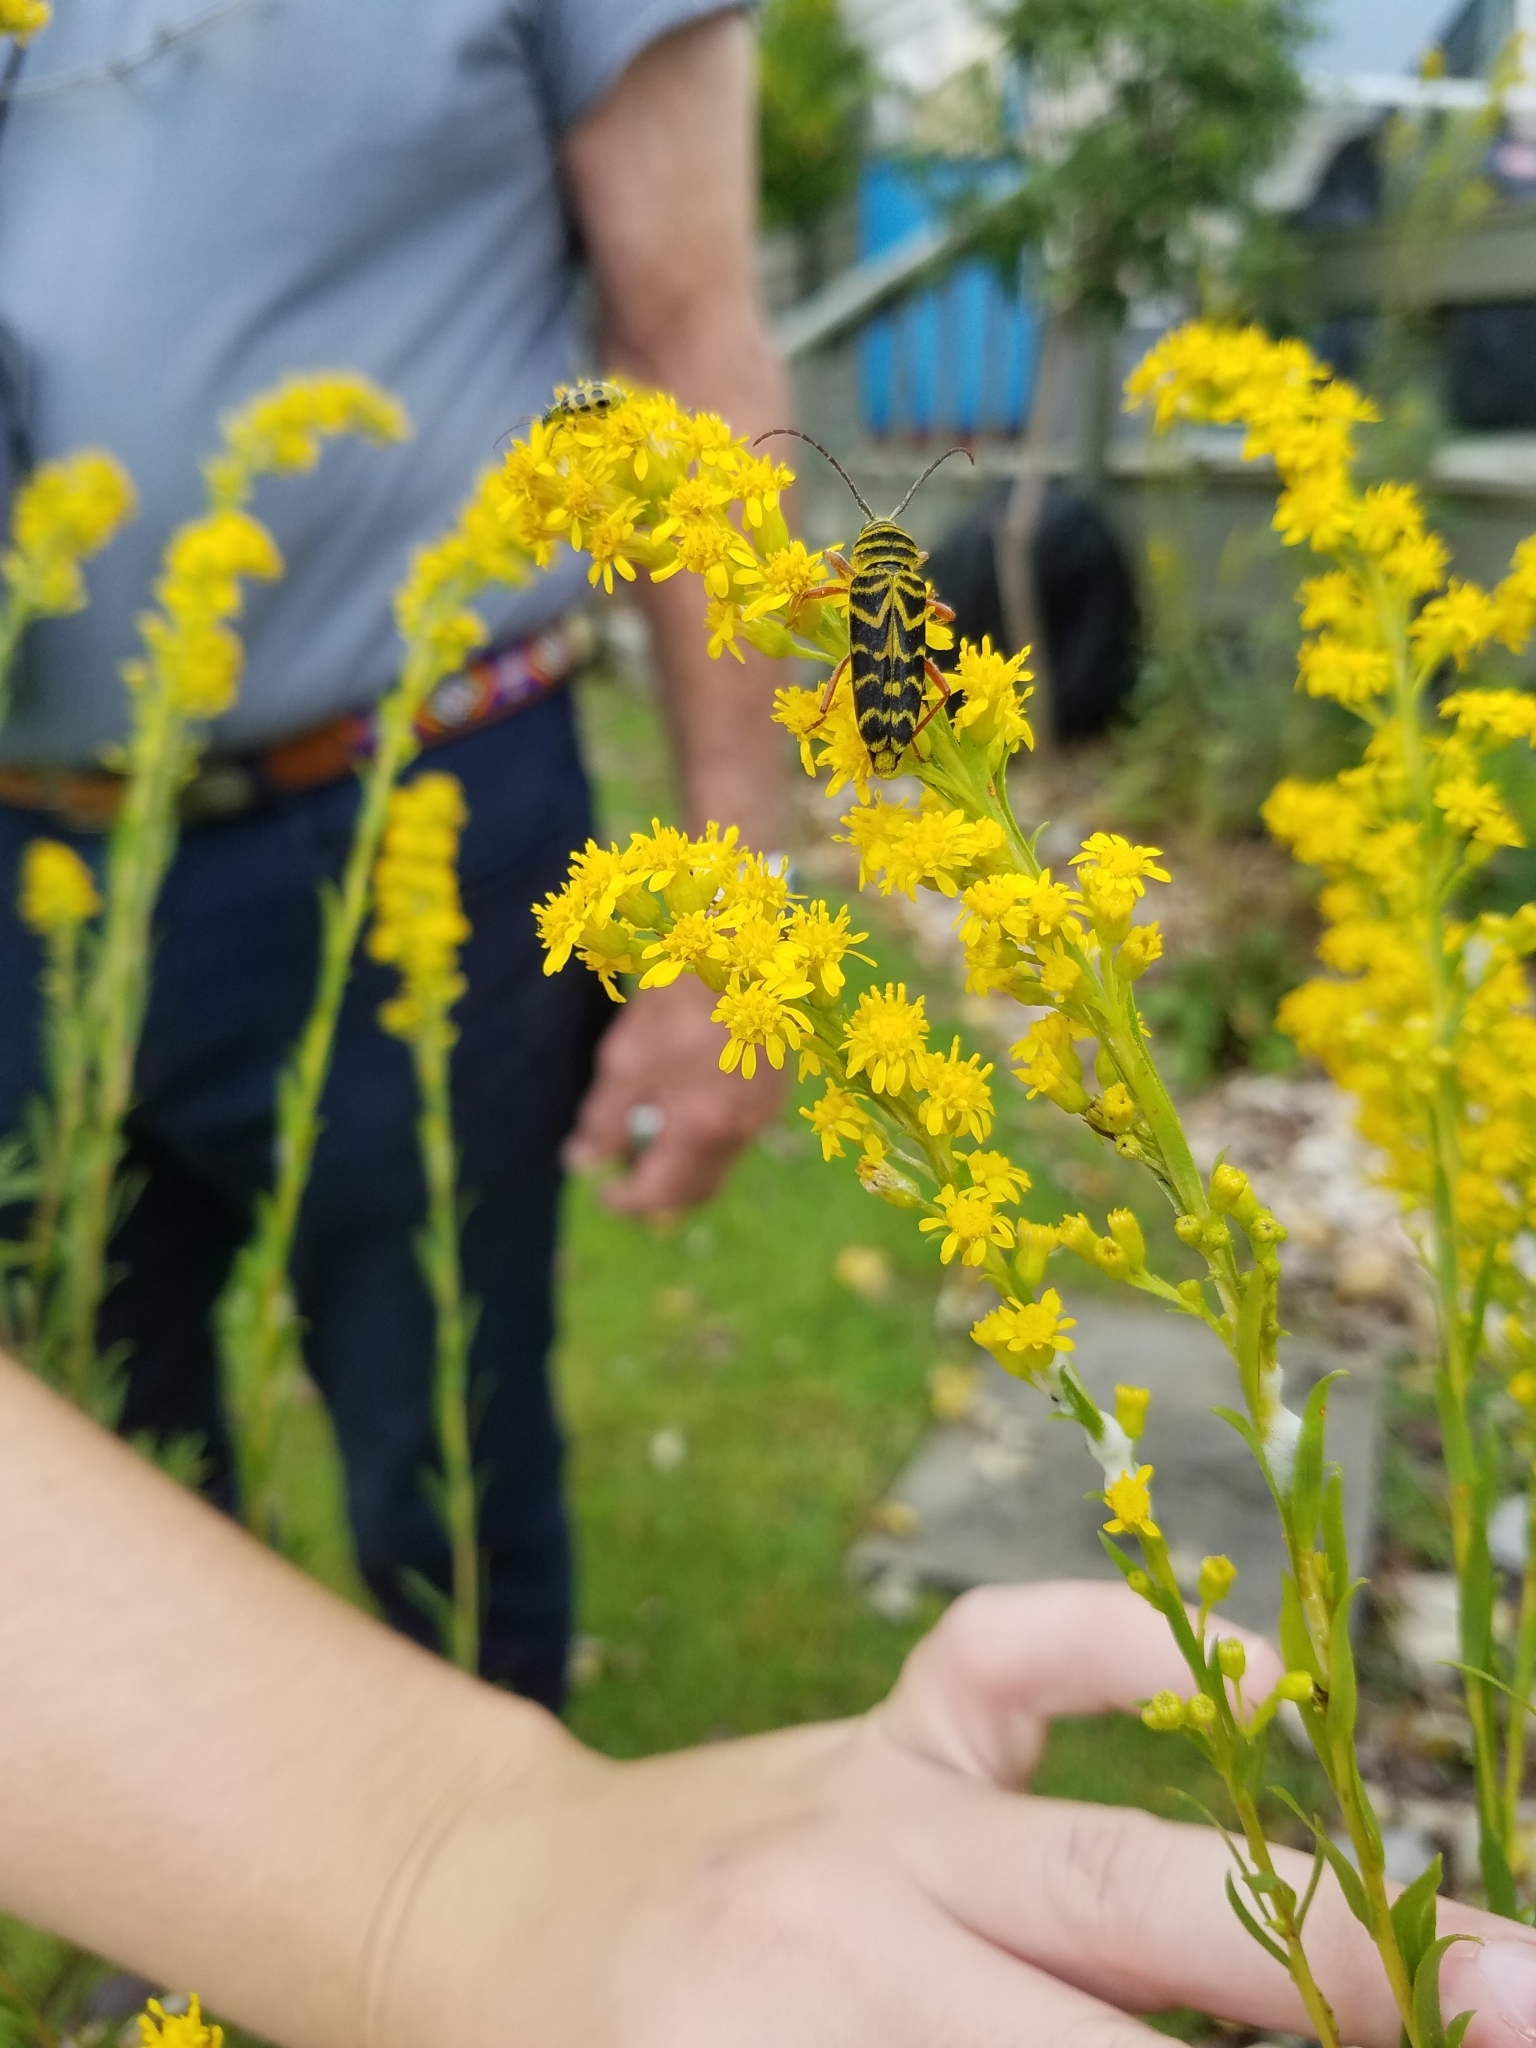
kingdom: Animalia
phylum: Arthropoda
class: Insecta
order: Coleoptera
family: Cerambycidae
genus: Megacyllene
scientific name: Megacyllene robiniae
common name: Locust borer
